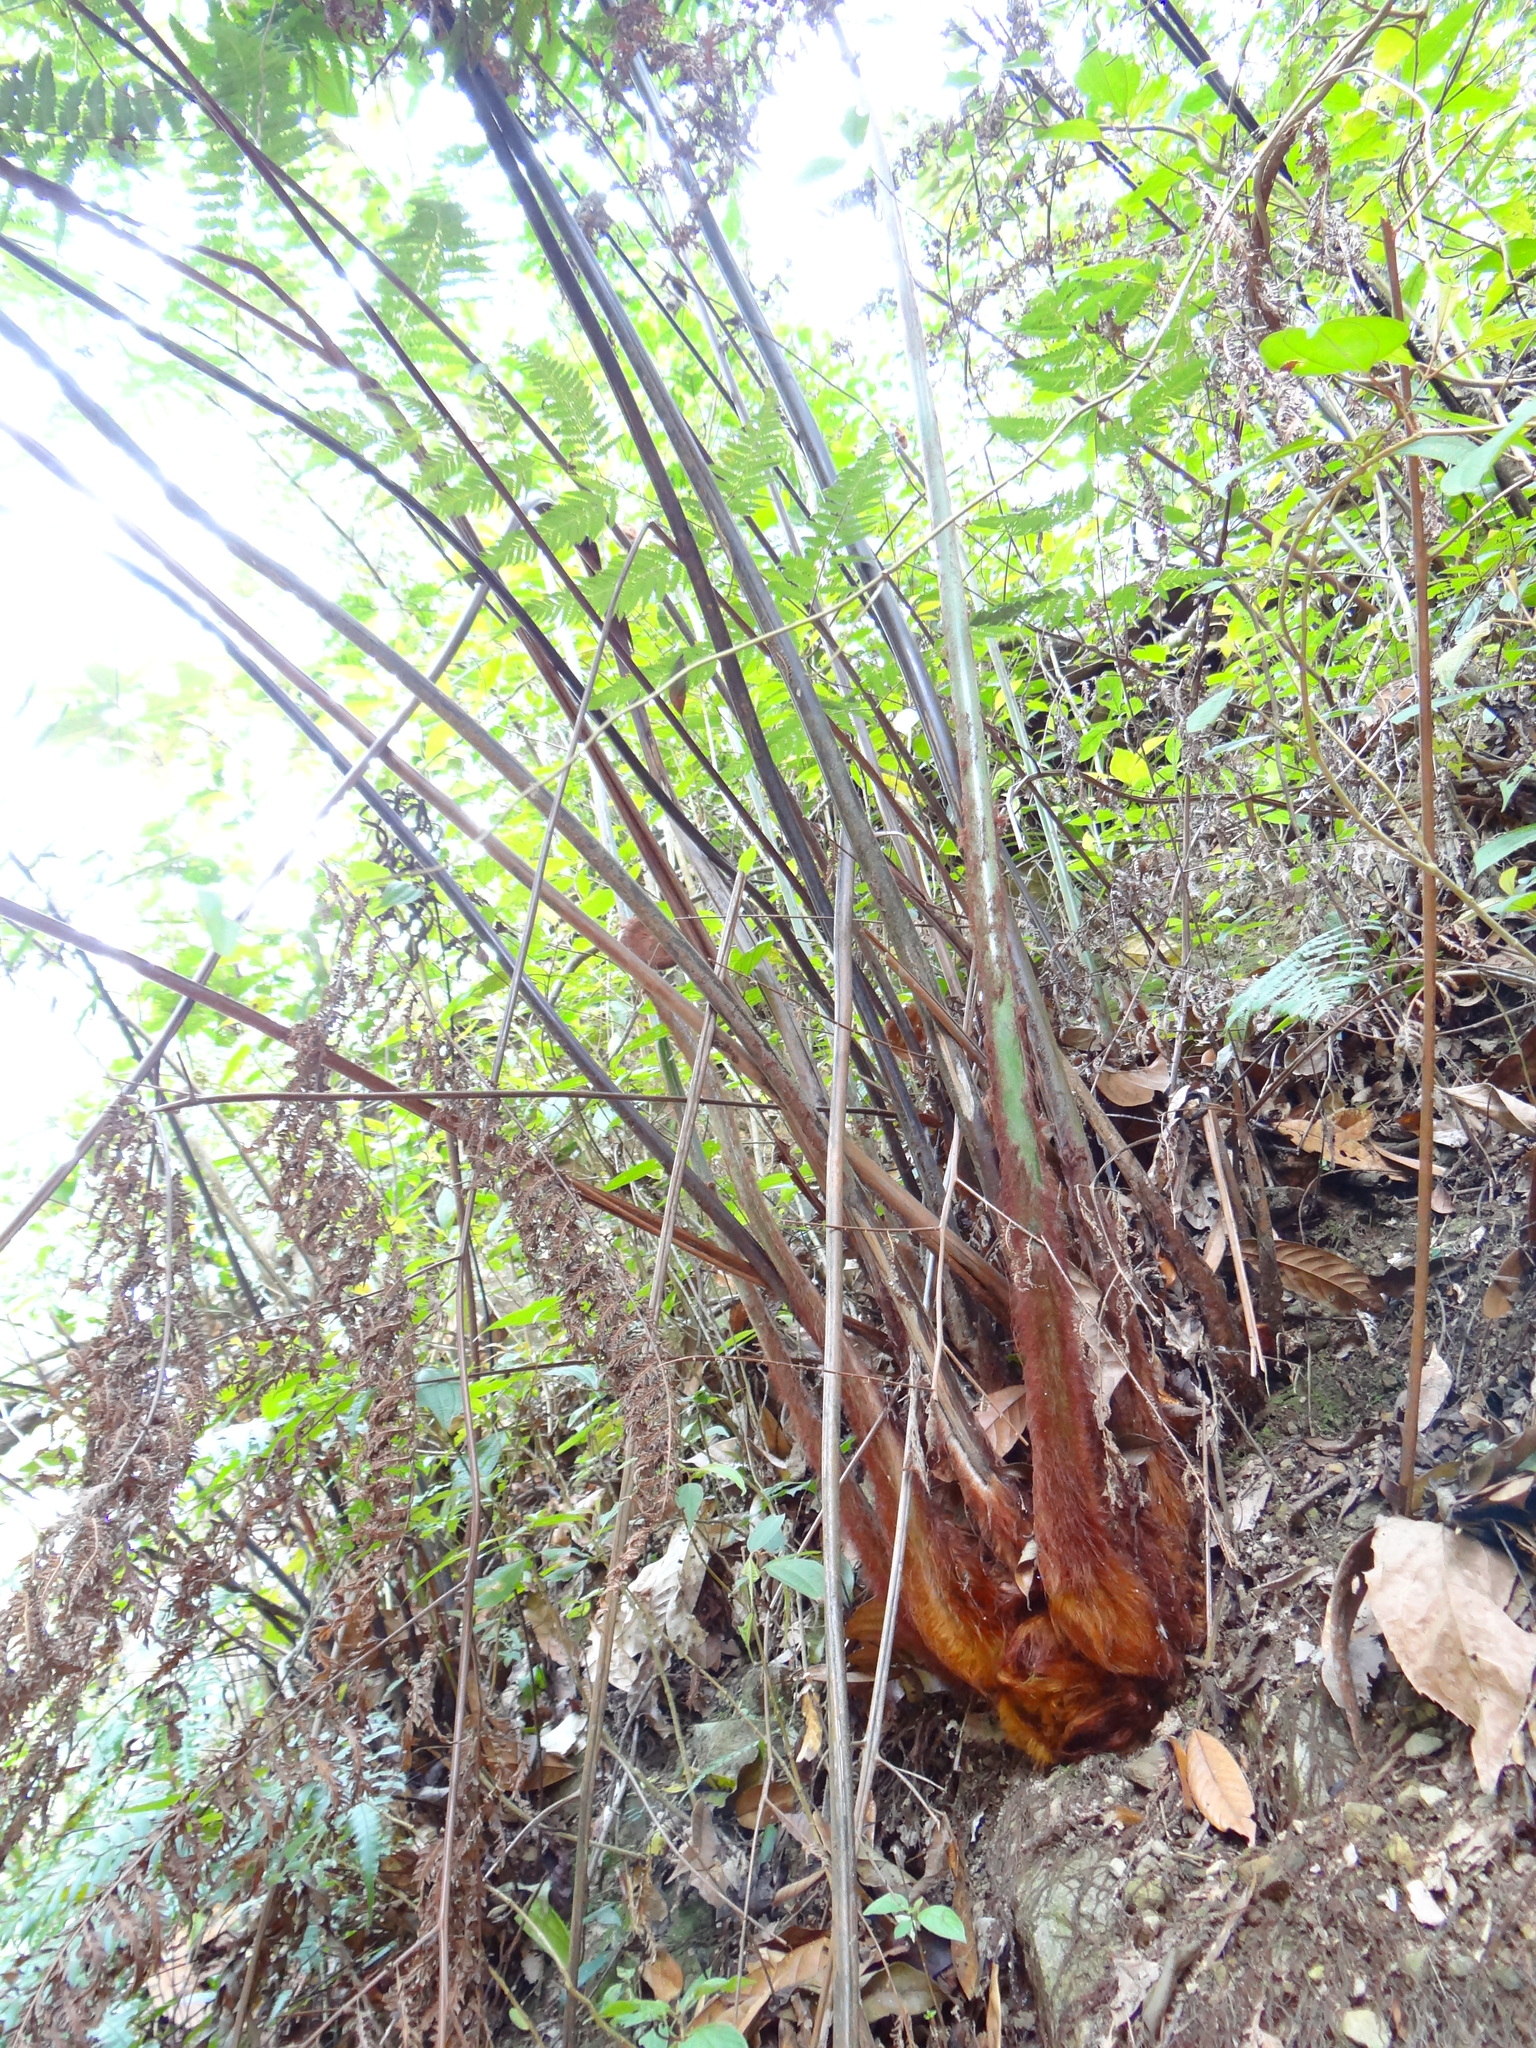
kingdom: Plantae
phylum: Tracheophyta
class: Polypodiopsida
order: Cyatheales
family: Cibotiaceae
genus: Cibotium
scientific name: Cibotium taiwanense
